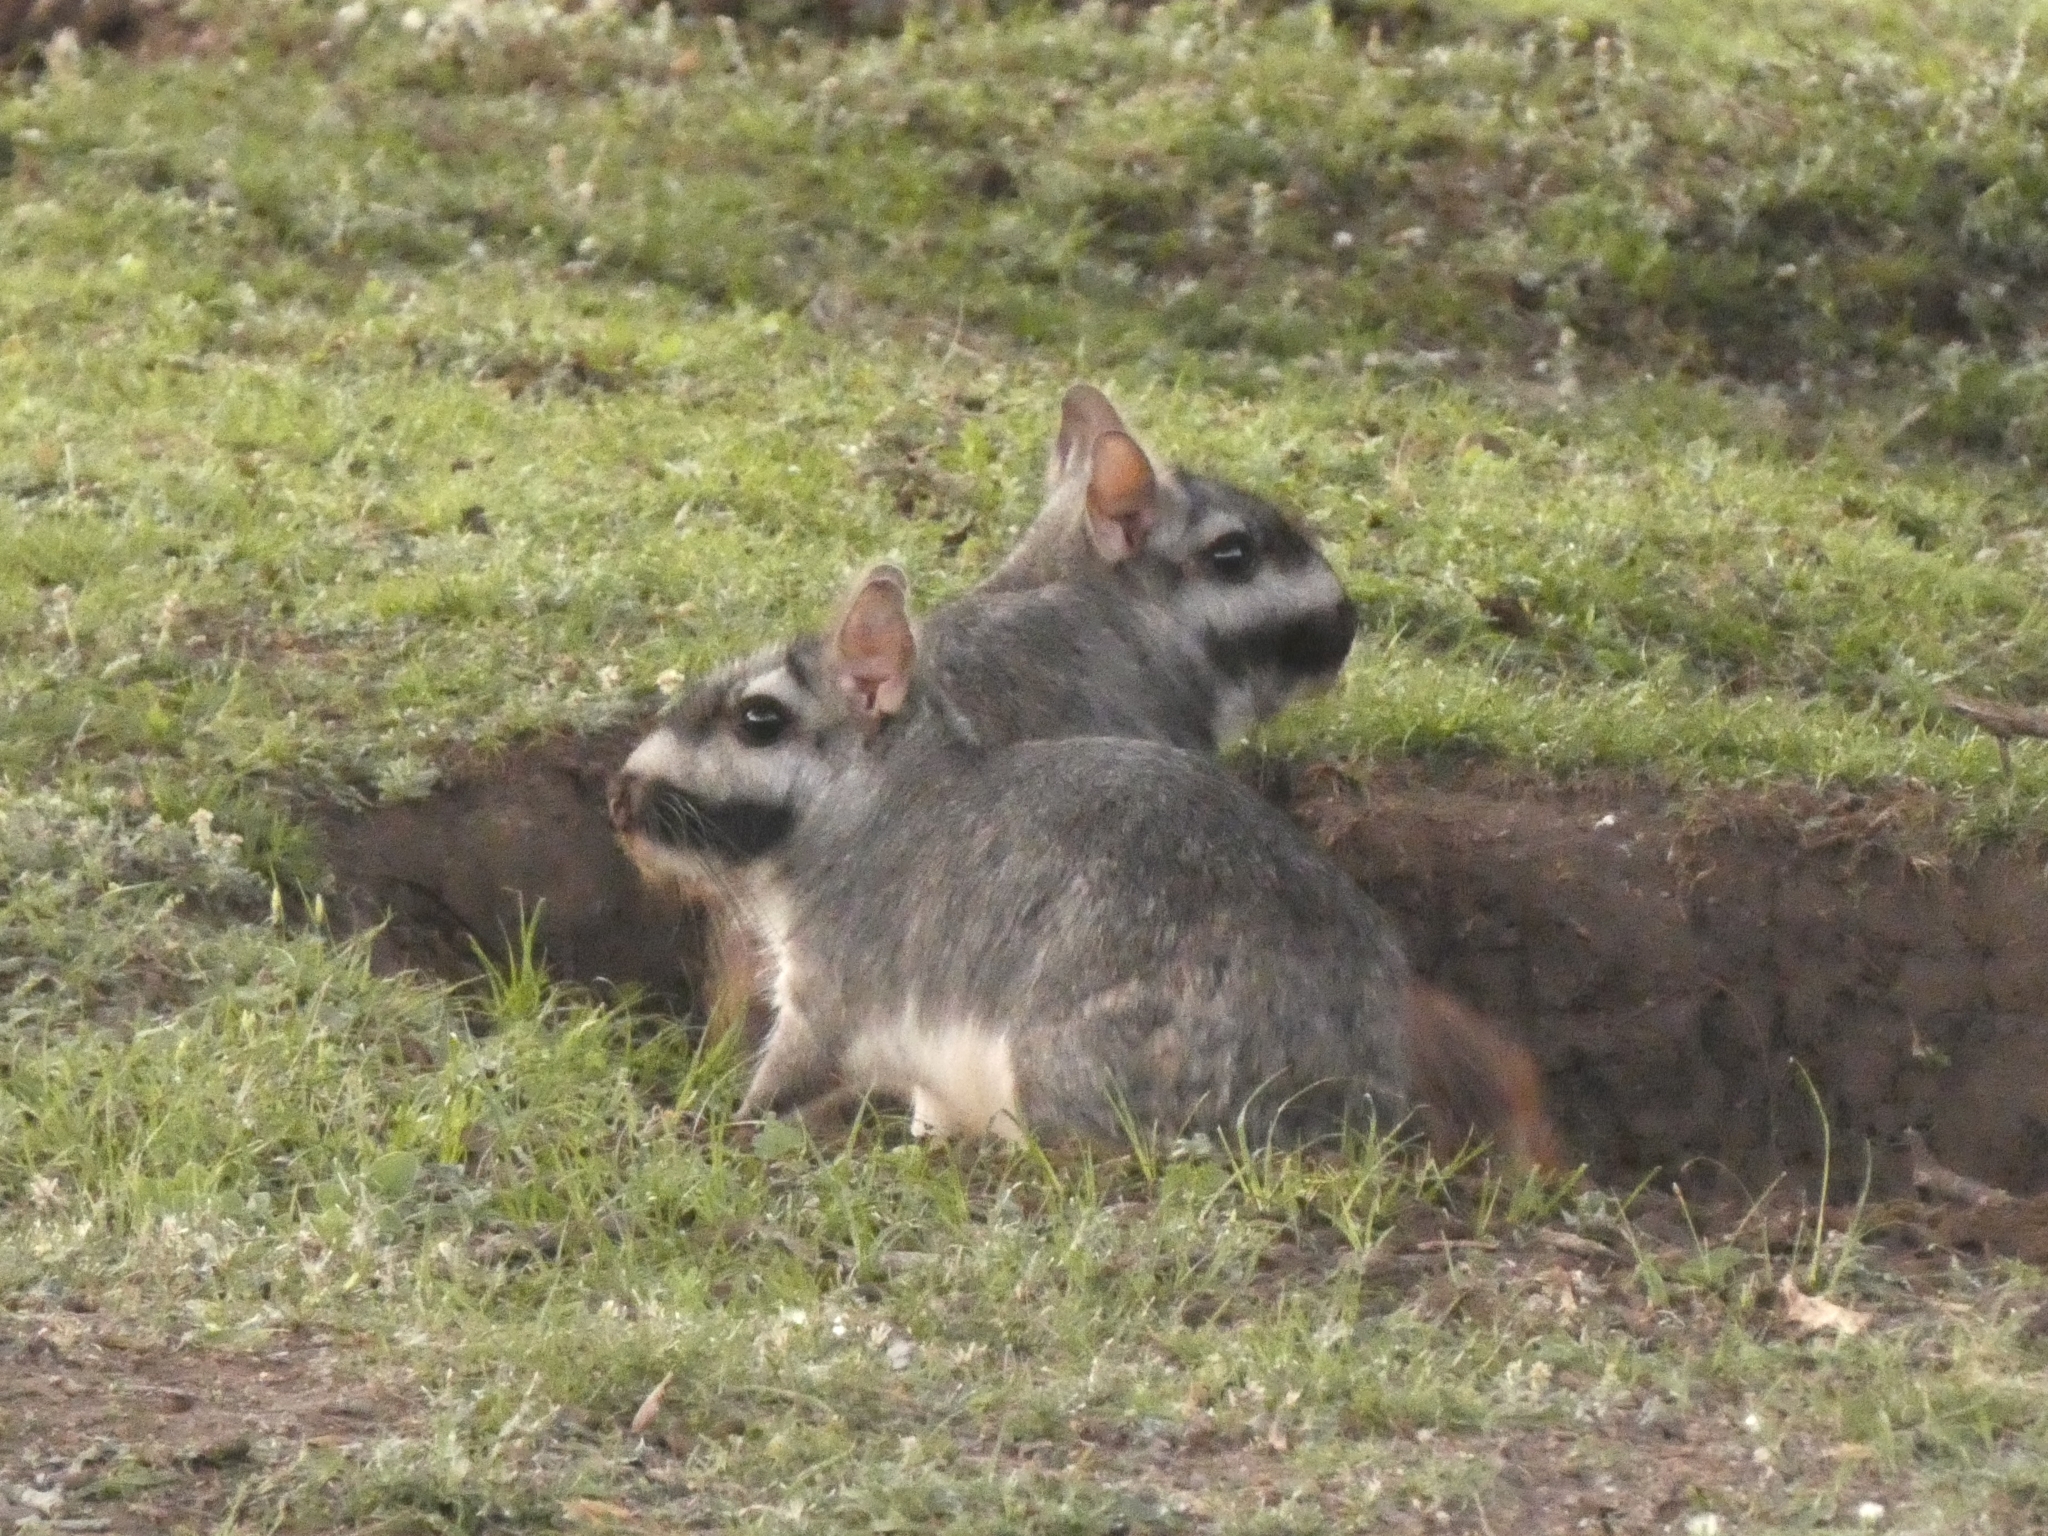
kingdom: Animalia
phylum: Chordata
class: Mammalia
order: Rodentia
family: Chinchillidae
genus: Lagostomus
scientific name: Lagostomus maximus
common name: Plains viscacha
